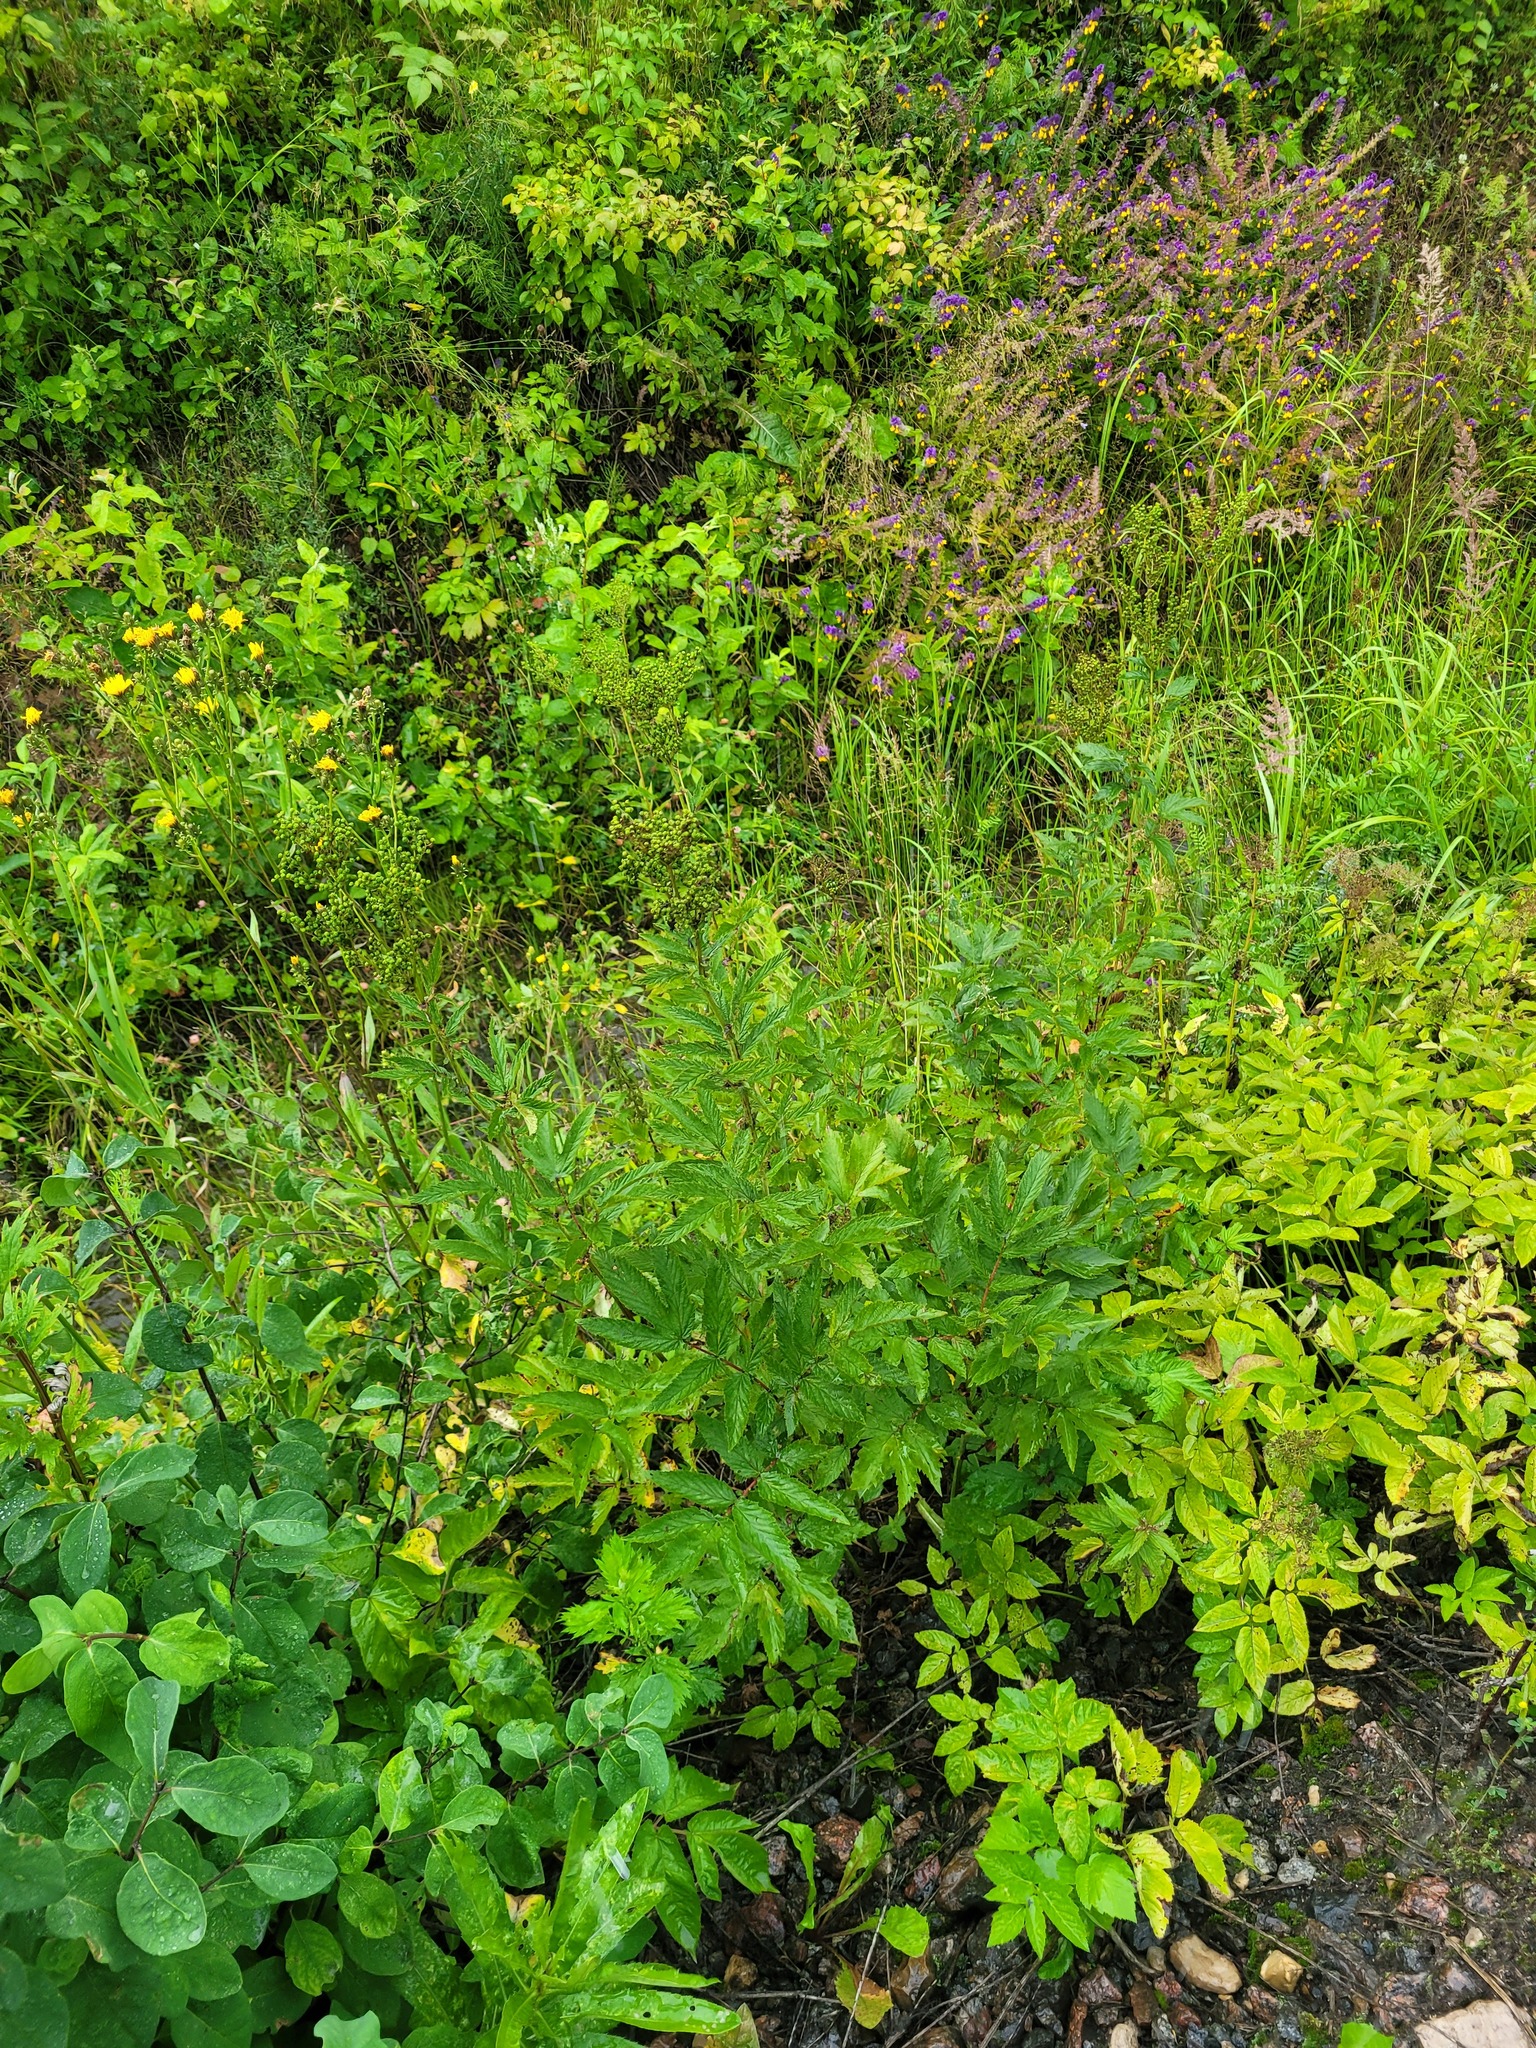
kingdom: Plantae
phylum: Tracheophyta
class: Magnoliopsida
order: Rosales
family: Rosaceae
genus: Filipendula
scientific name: Filipendula ulmaria
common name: Meadowsweet
